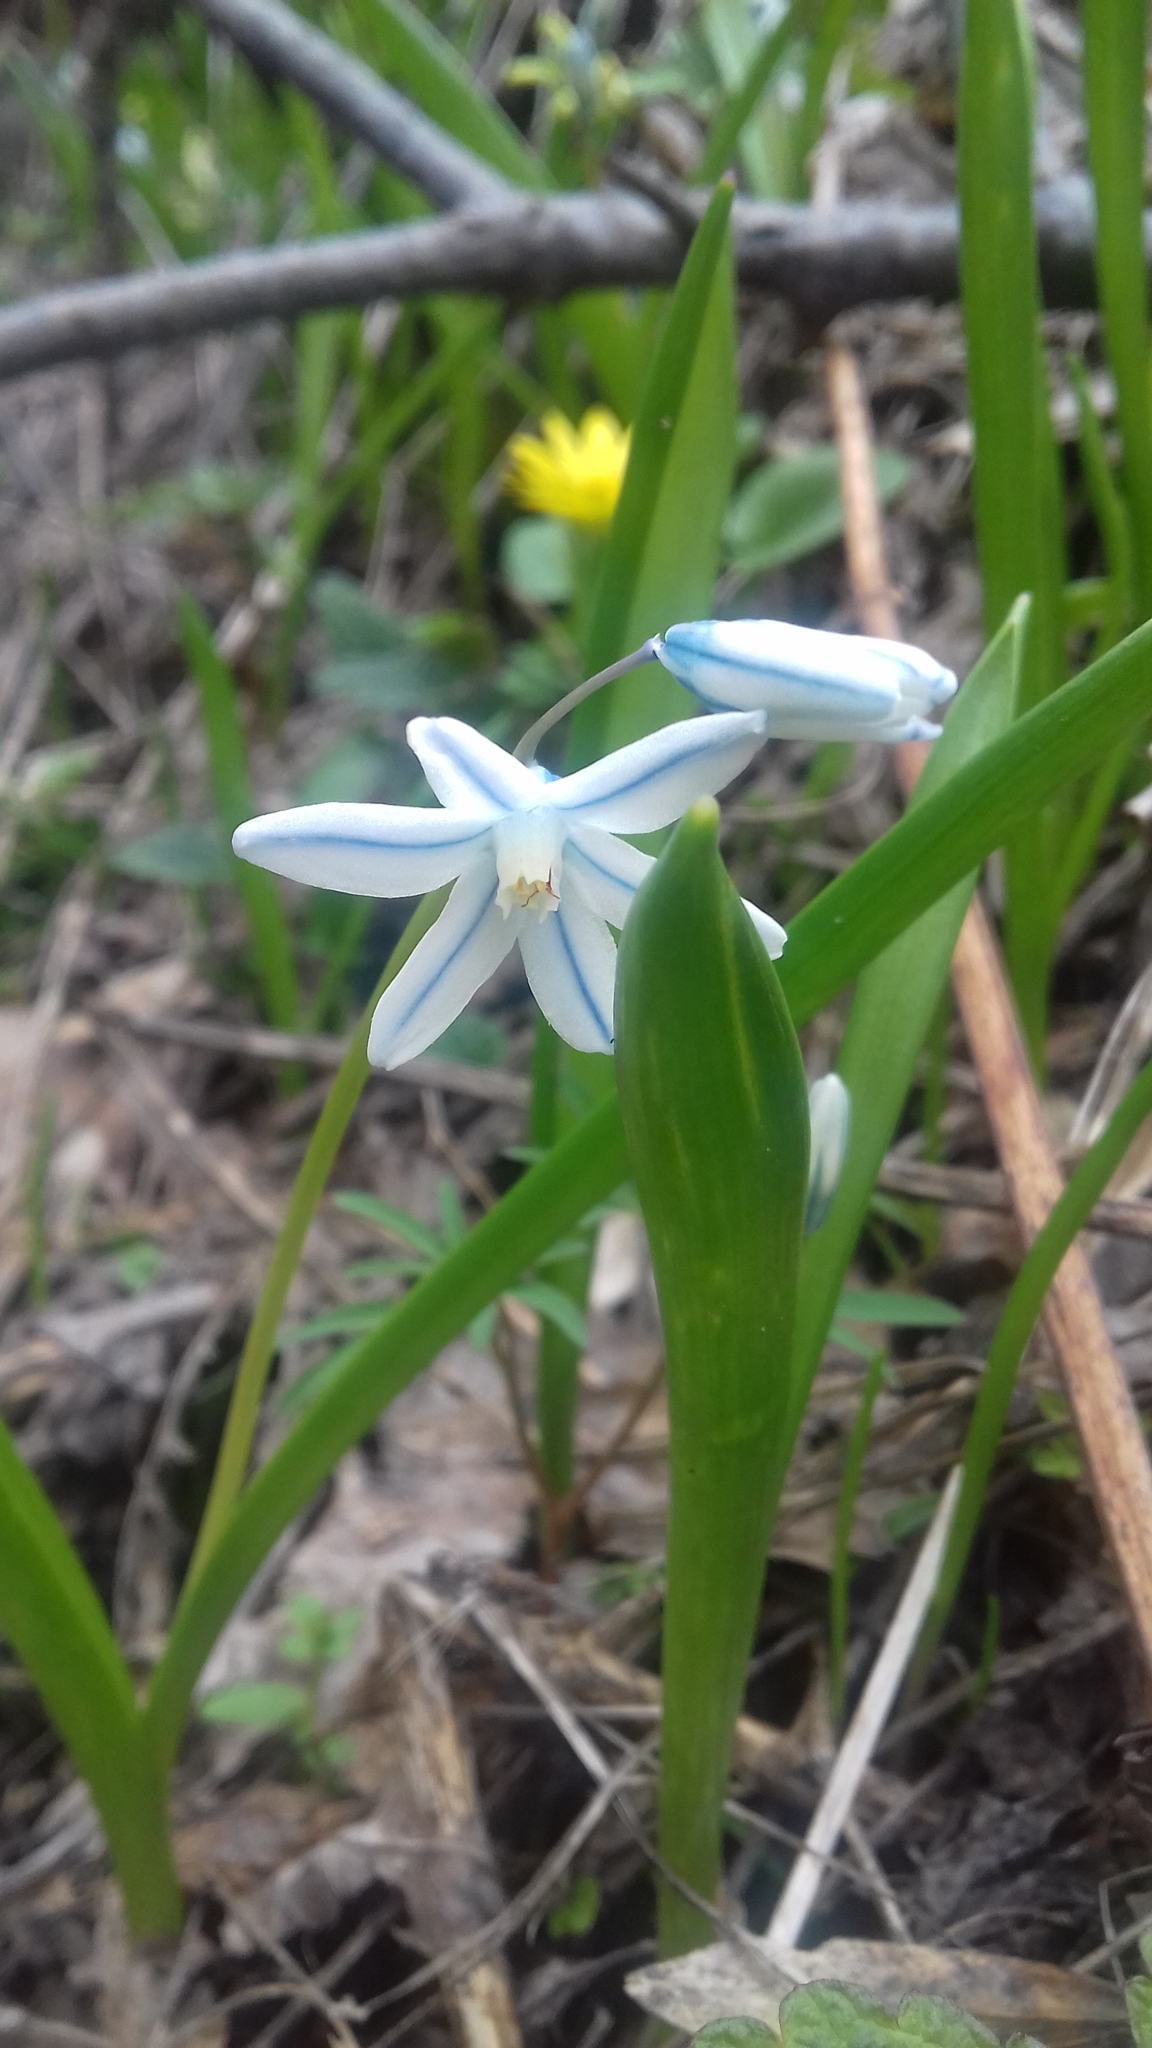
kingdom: Plantae
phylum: Tracheophyta
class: Liliopsida
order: Asparagales
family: Asparagaceae
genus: Puschkinia
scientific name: Puschkinia scilloides
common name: Striped squill
